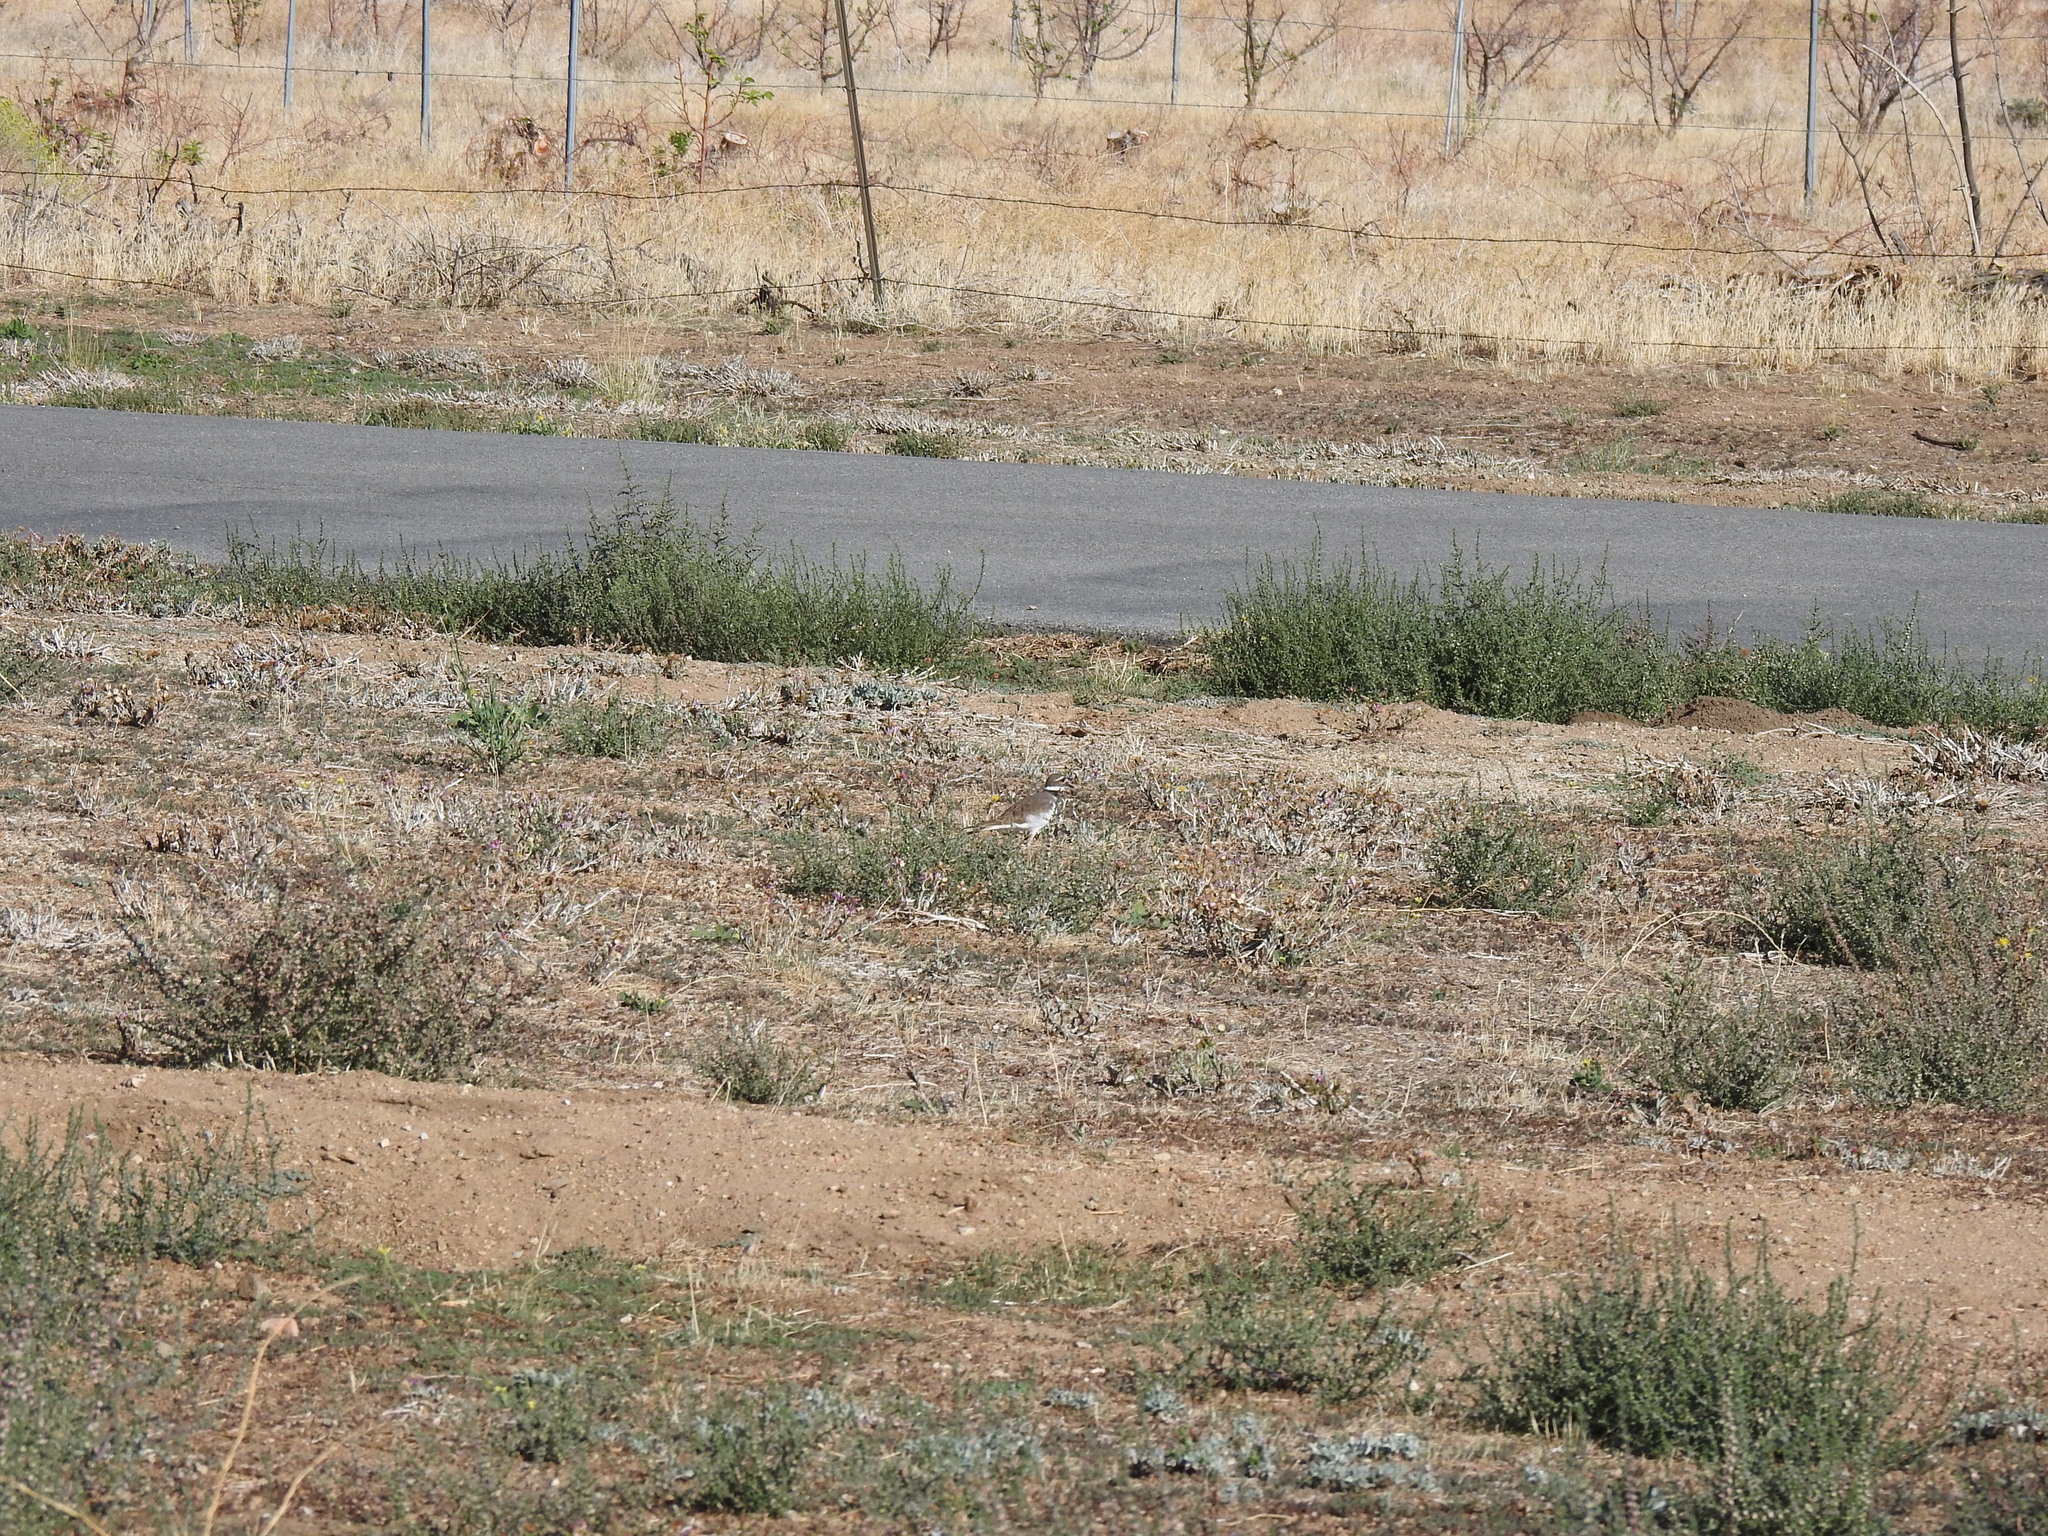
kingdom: Animalia
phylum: Chordata
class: Aves
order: Charadriiformes
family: Charadriidae
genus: Charadrius
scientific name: Charadrius vociferus
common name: Killdeer
